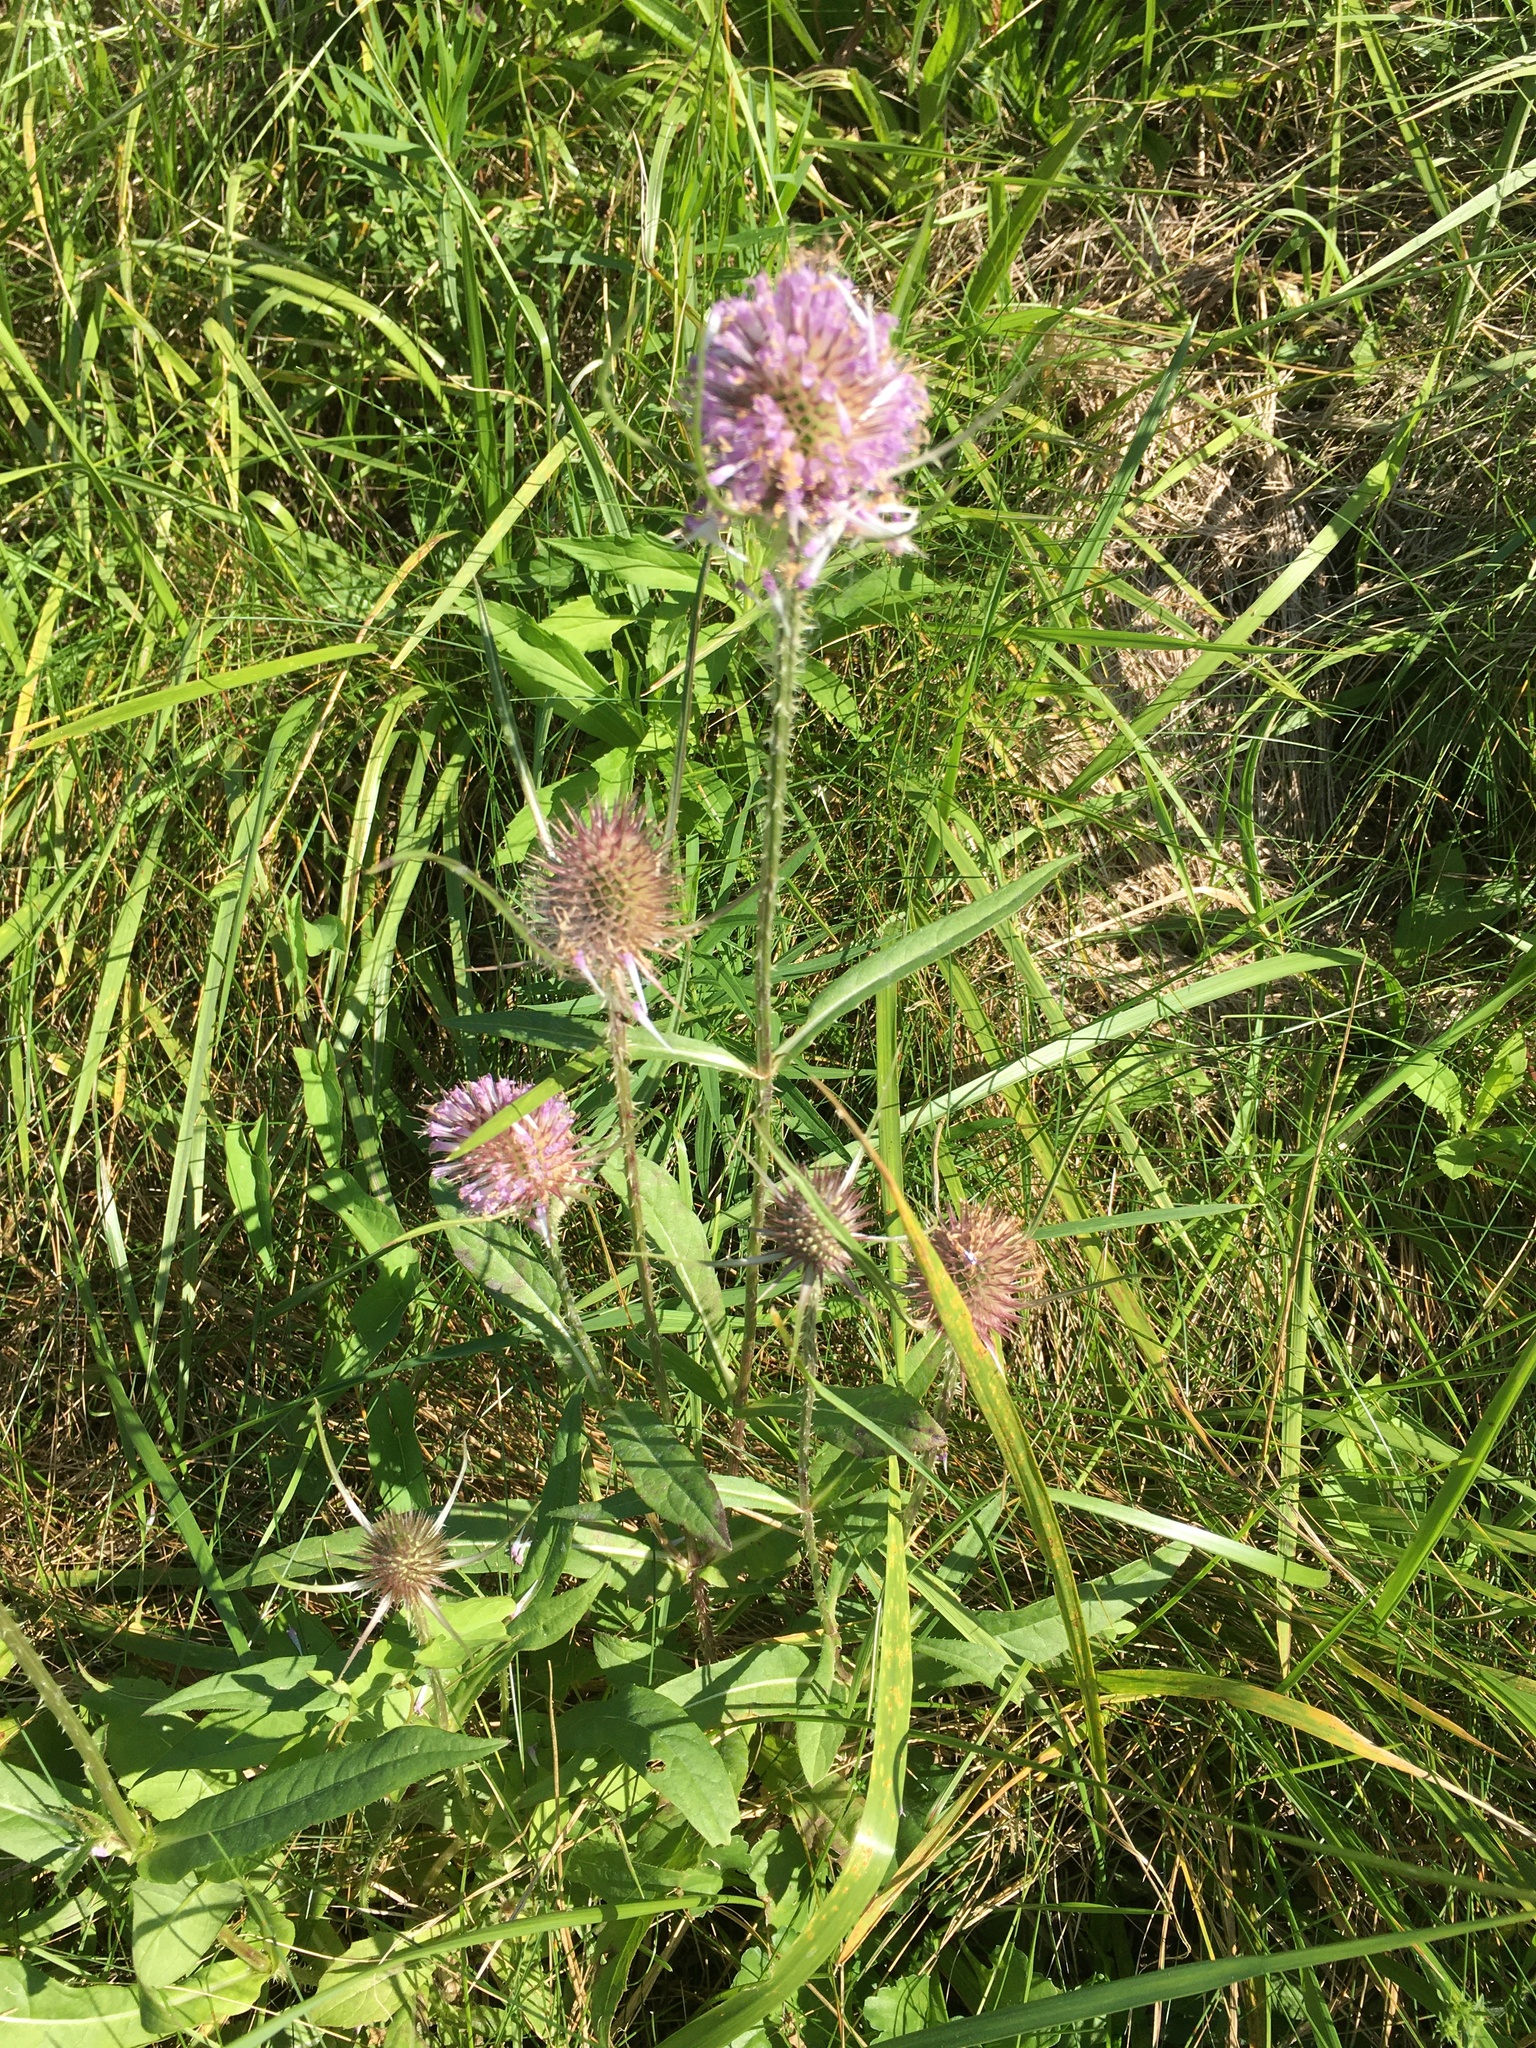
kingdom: Plantae
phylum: Tracheophyta
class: Magnoliopsida
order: Dipsacales
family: Caprifoliaceae
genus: Dipsacus
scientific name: Dipsacus fullonum
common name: Teasel
